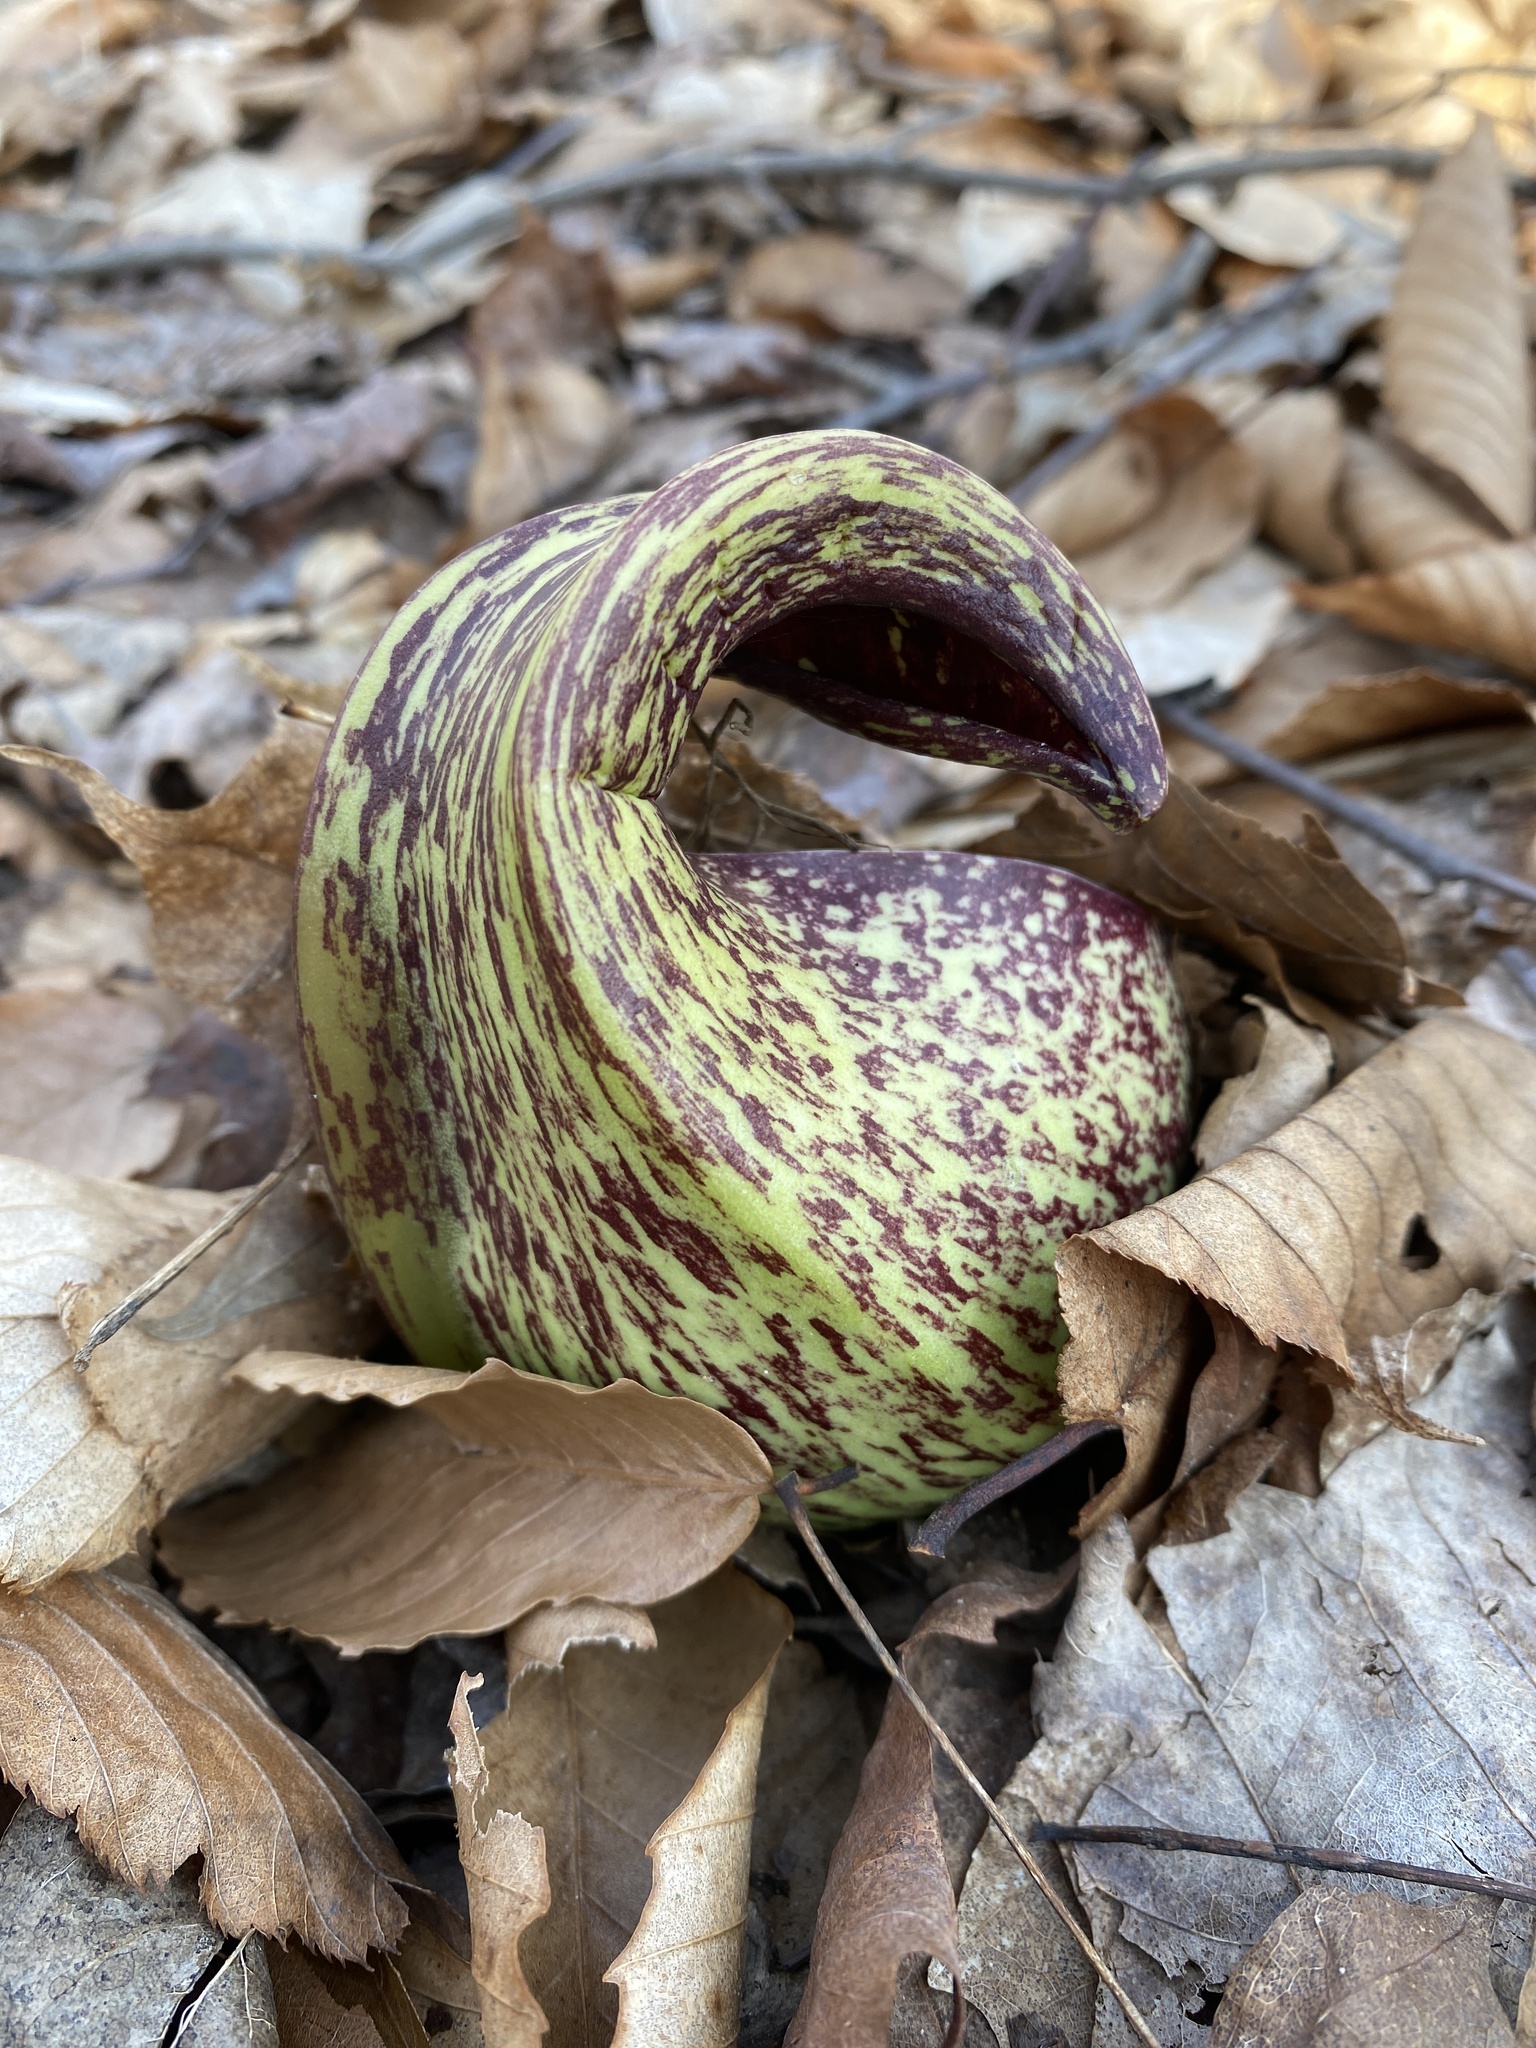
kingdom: Plantae
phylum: Tracheophyta
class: Liliopsida
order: Alismatales
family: Araceae
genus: Symplocarpus
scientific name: Symplocarpus foetidus
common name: Eastern skunk cabbage
